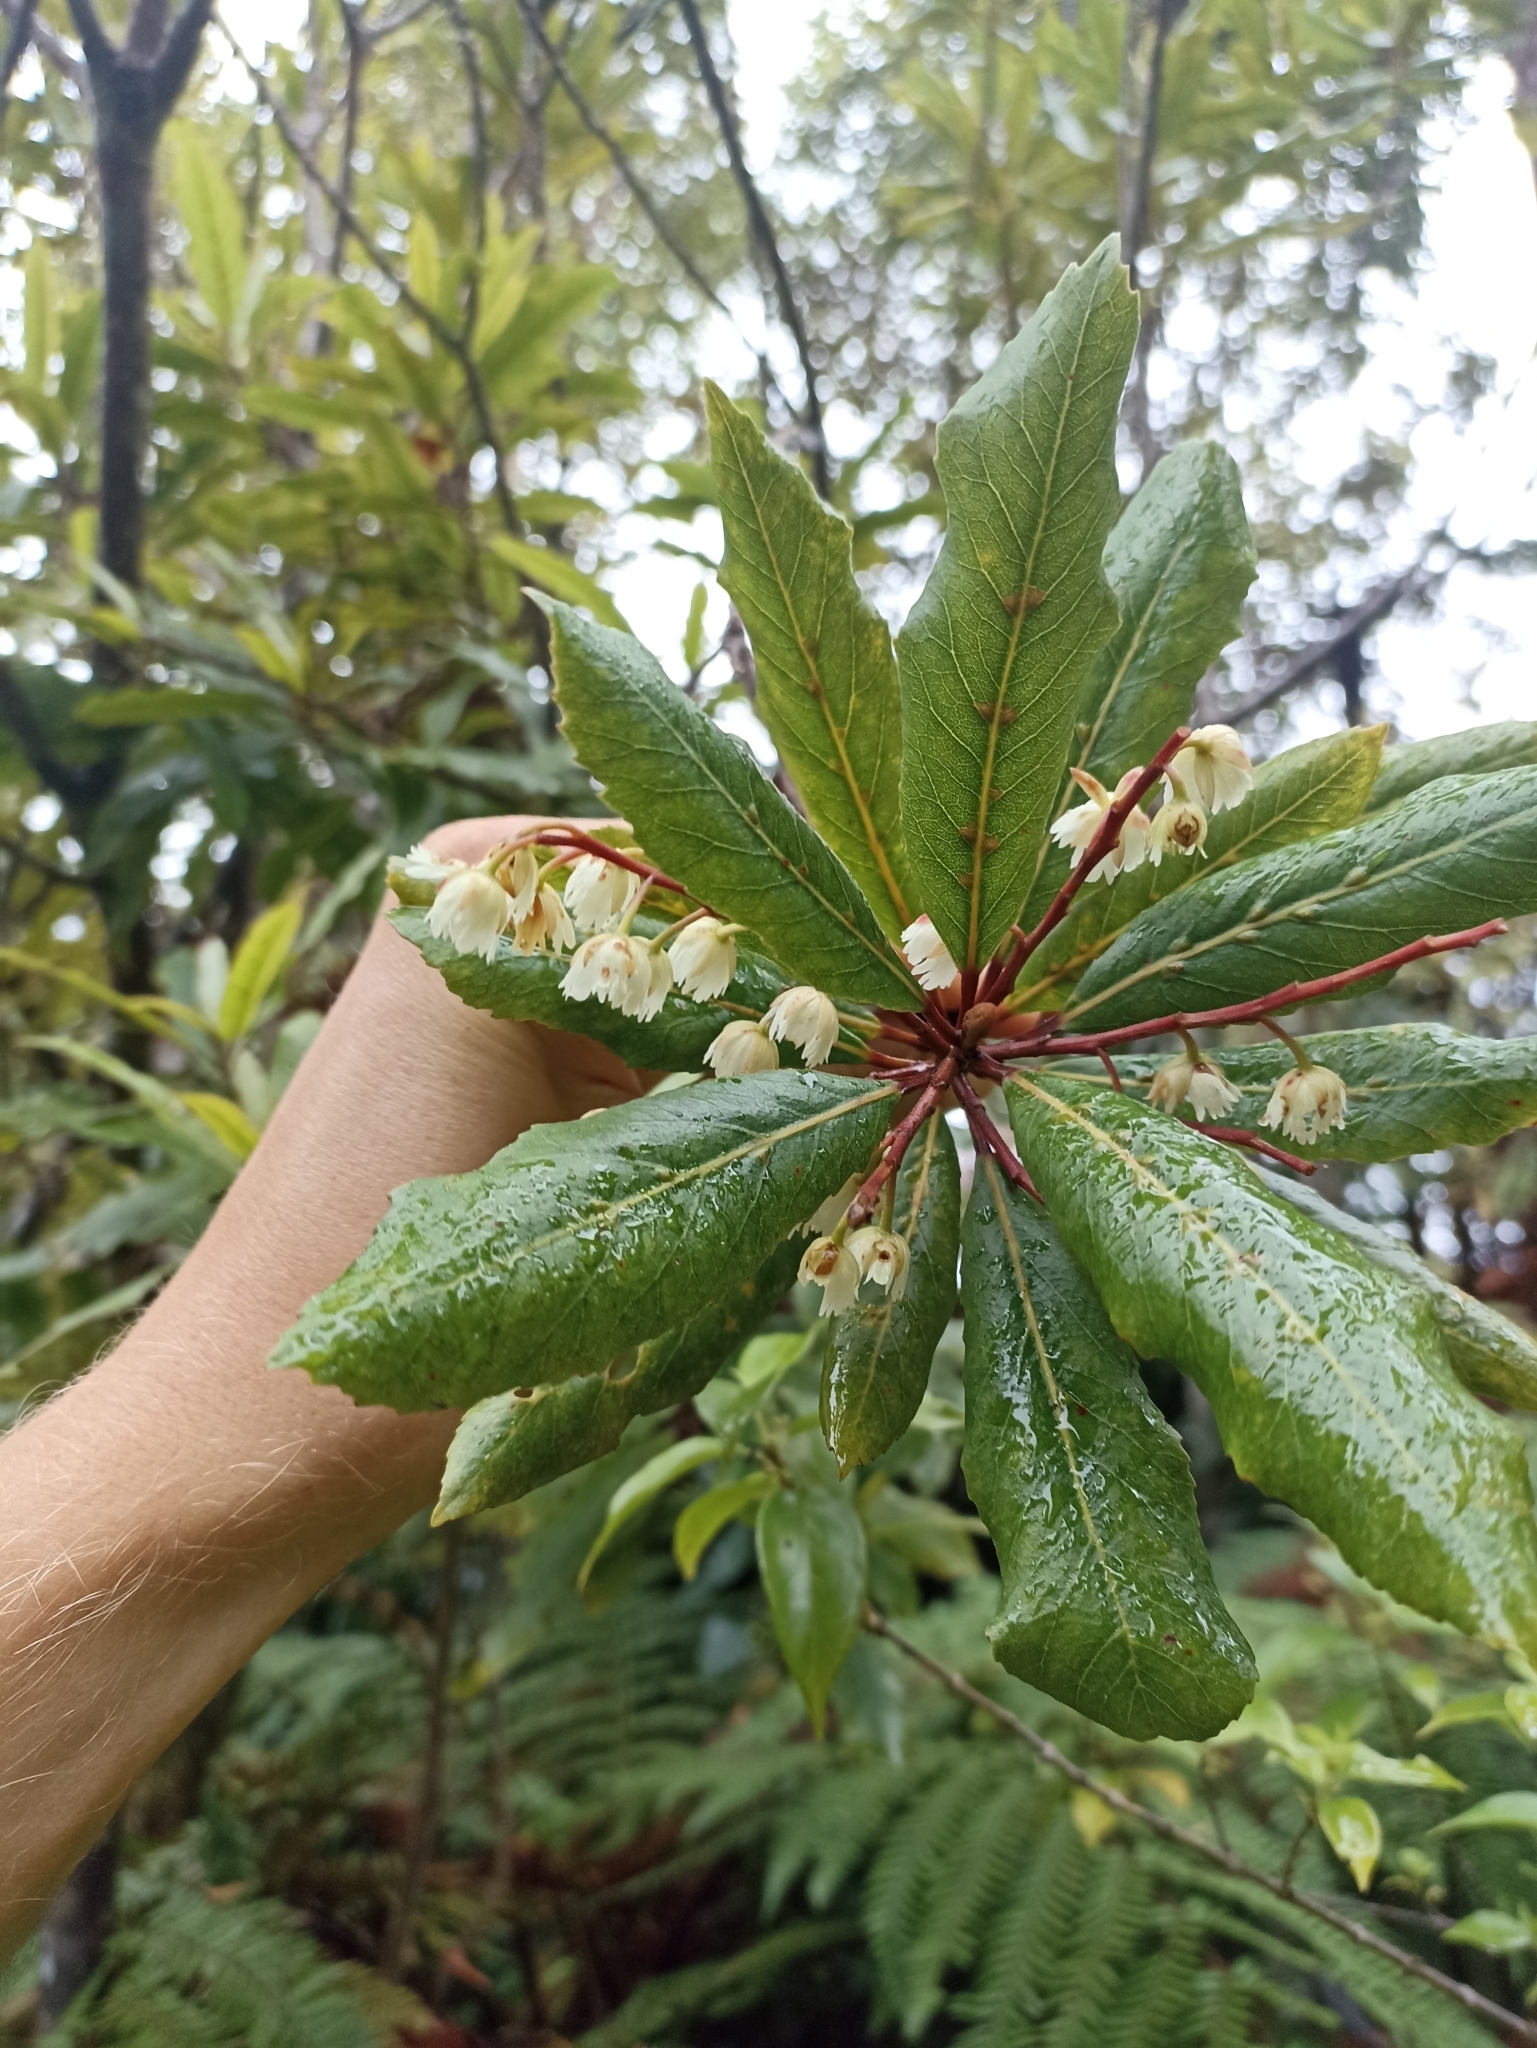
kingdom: Plantae
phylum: Tracheophyta
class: Magnoliopsida
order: Oxalidales
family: Elaeocarpaceae
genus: Elaeocarpus
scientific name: Elaeocarpus dentatus
